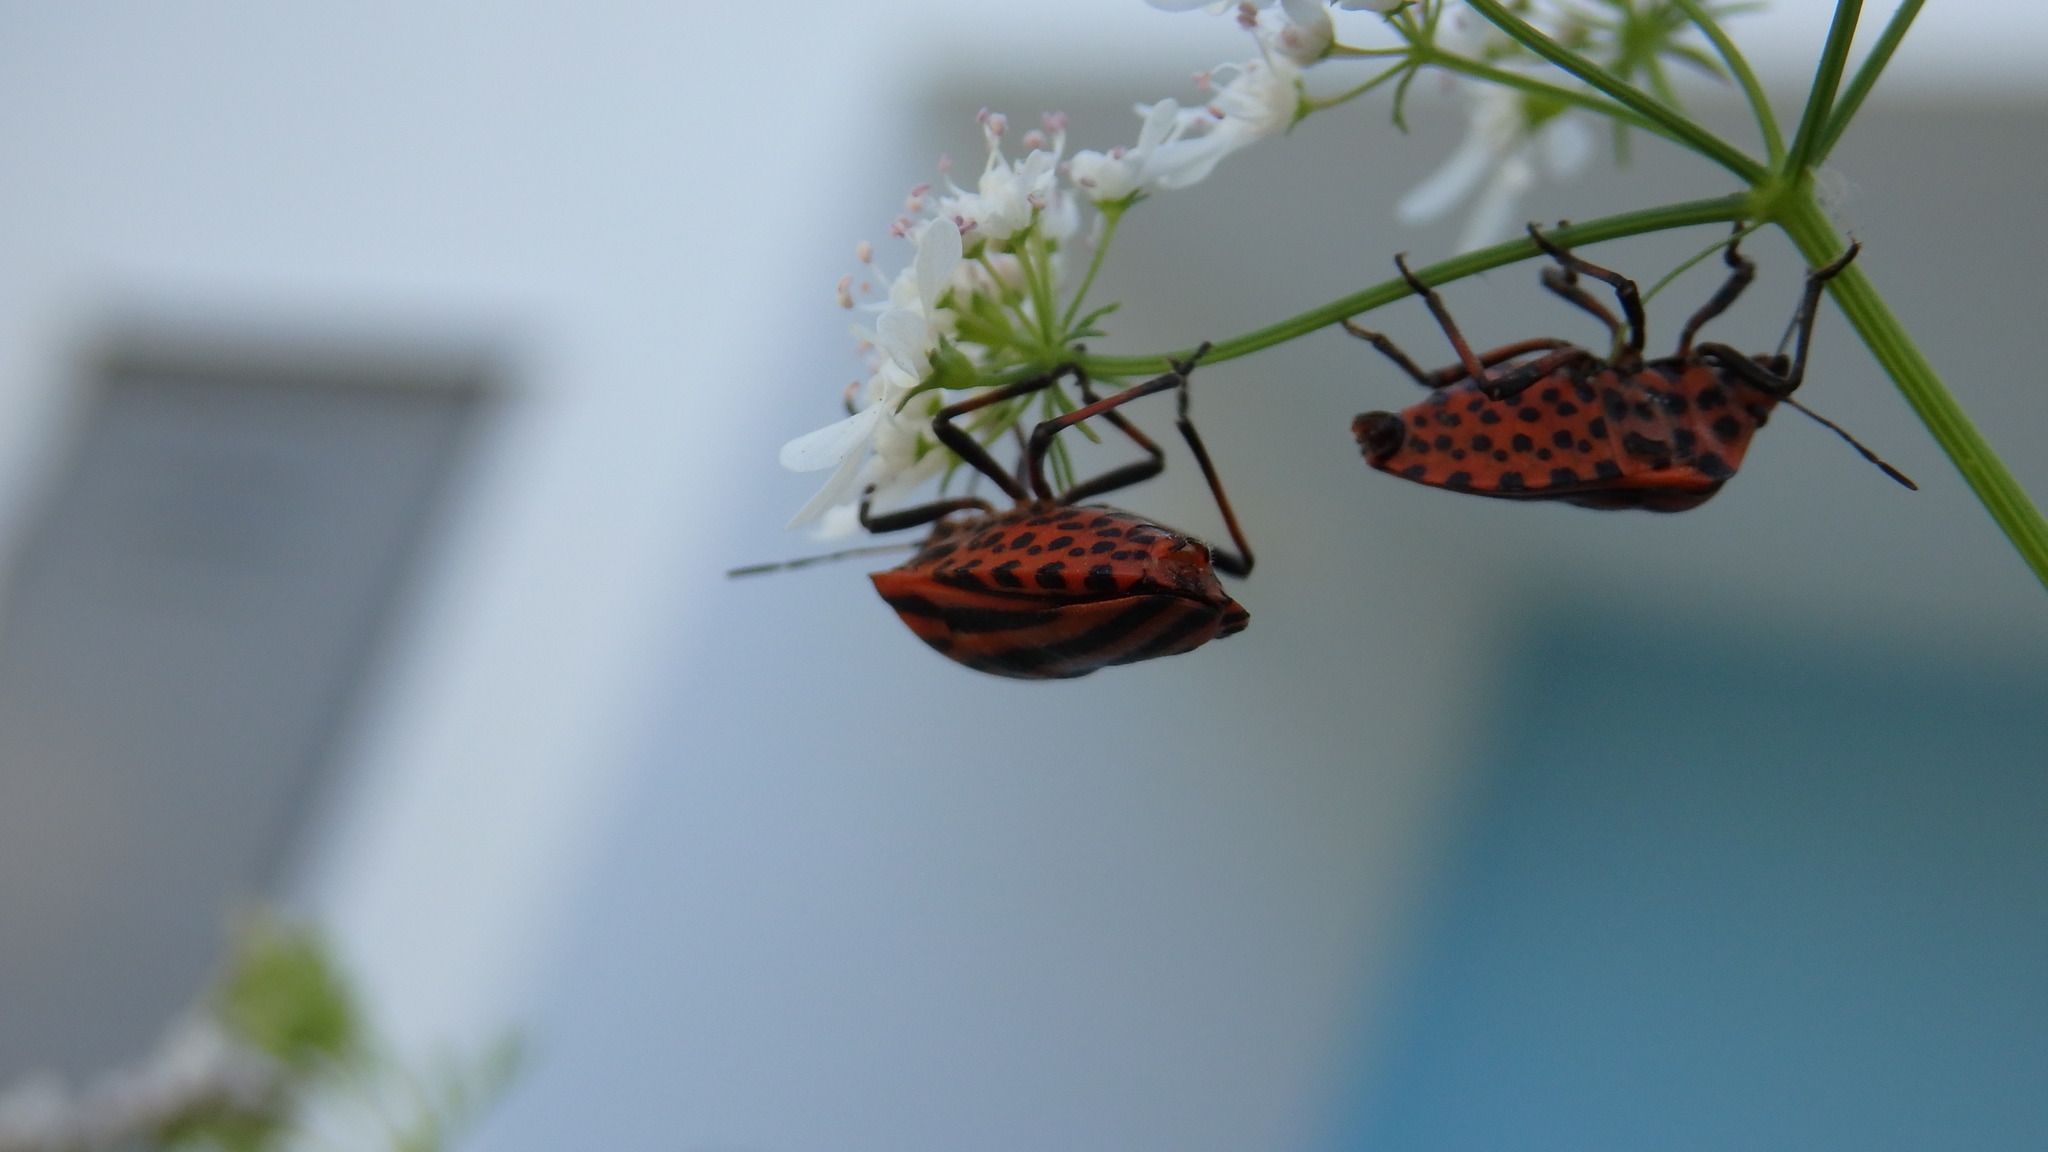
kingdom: Animalia
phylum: Arthropoda
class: Insecta
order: Hemiptera
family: Pentatomidae
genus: Graphosoma
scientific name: Graphosoma italicum
